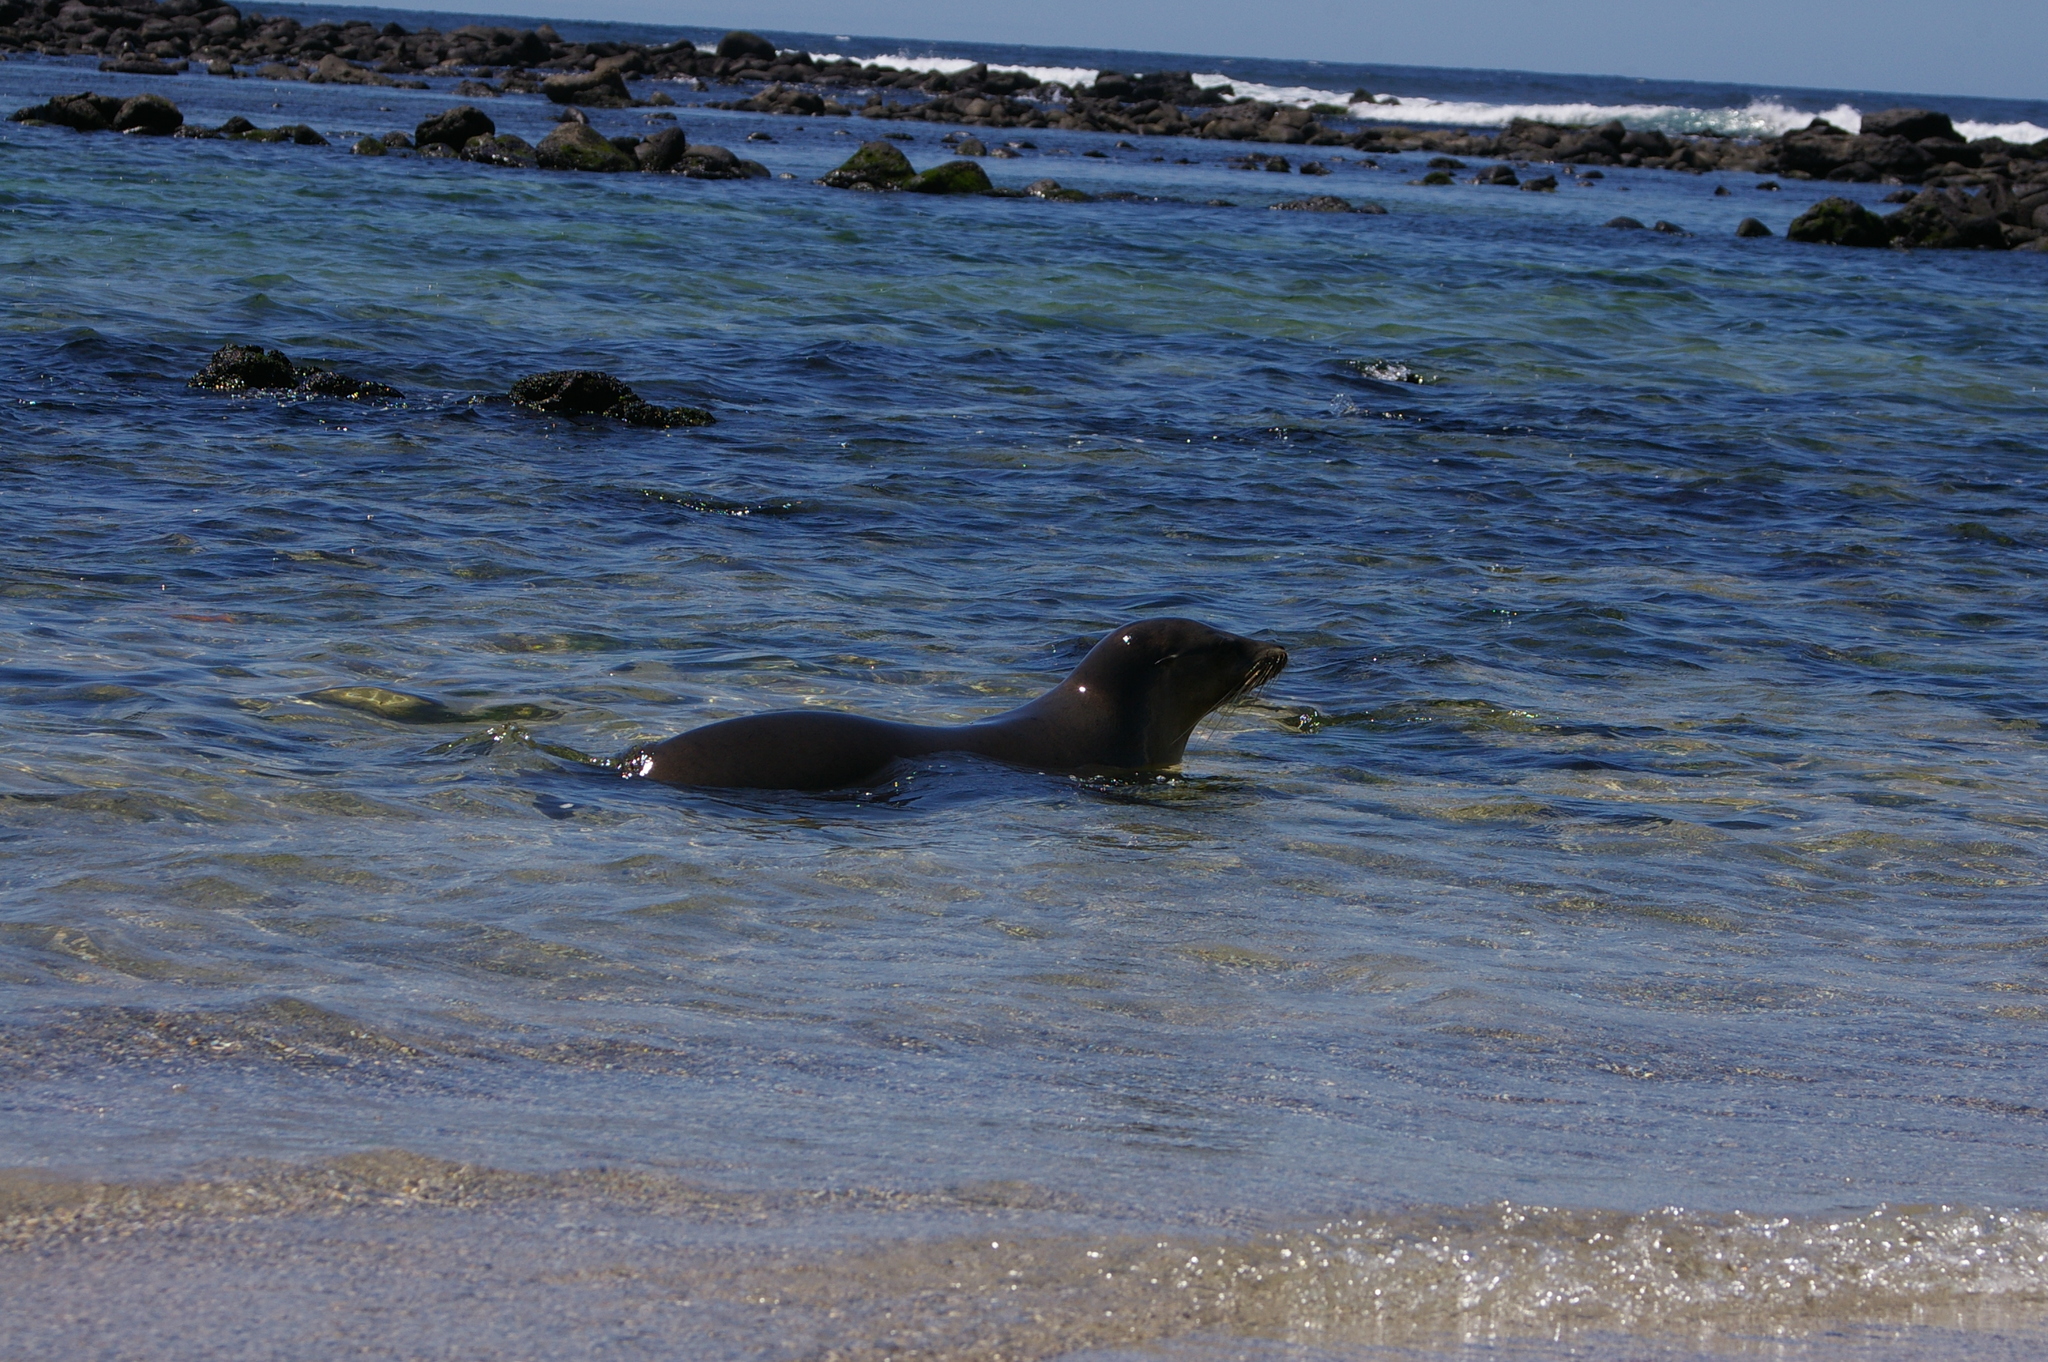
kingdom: Animalia
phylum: Chordata
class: Mammalia
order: Carnivora
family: Otariidae
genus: Zalophus
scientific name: Zalophus wollebaeki
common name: Galapagos sea lion
